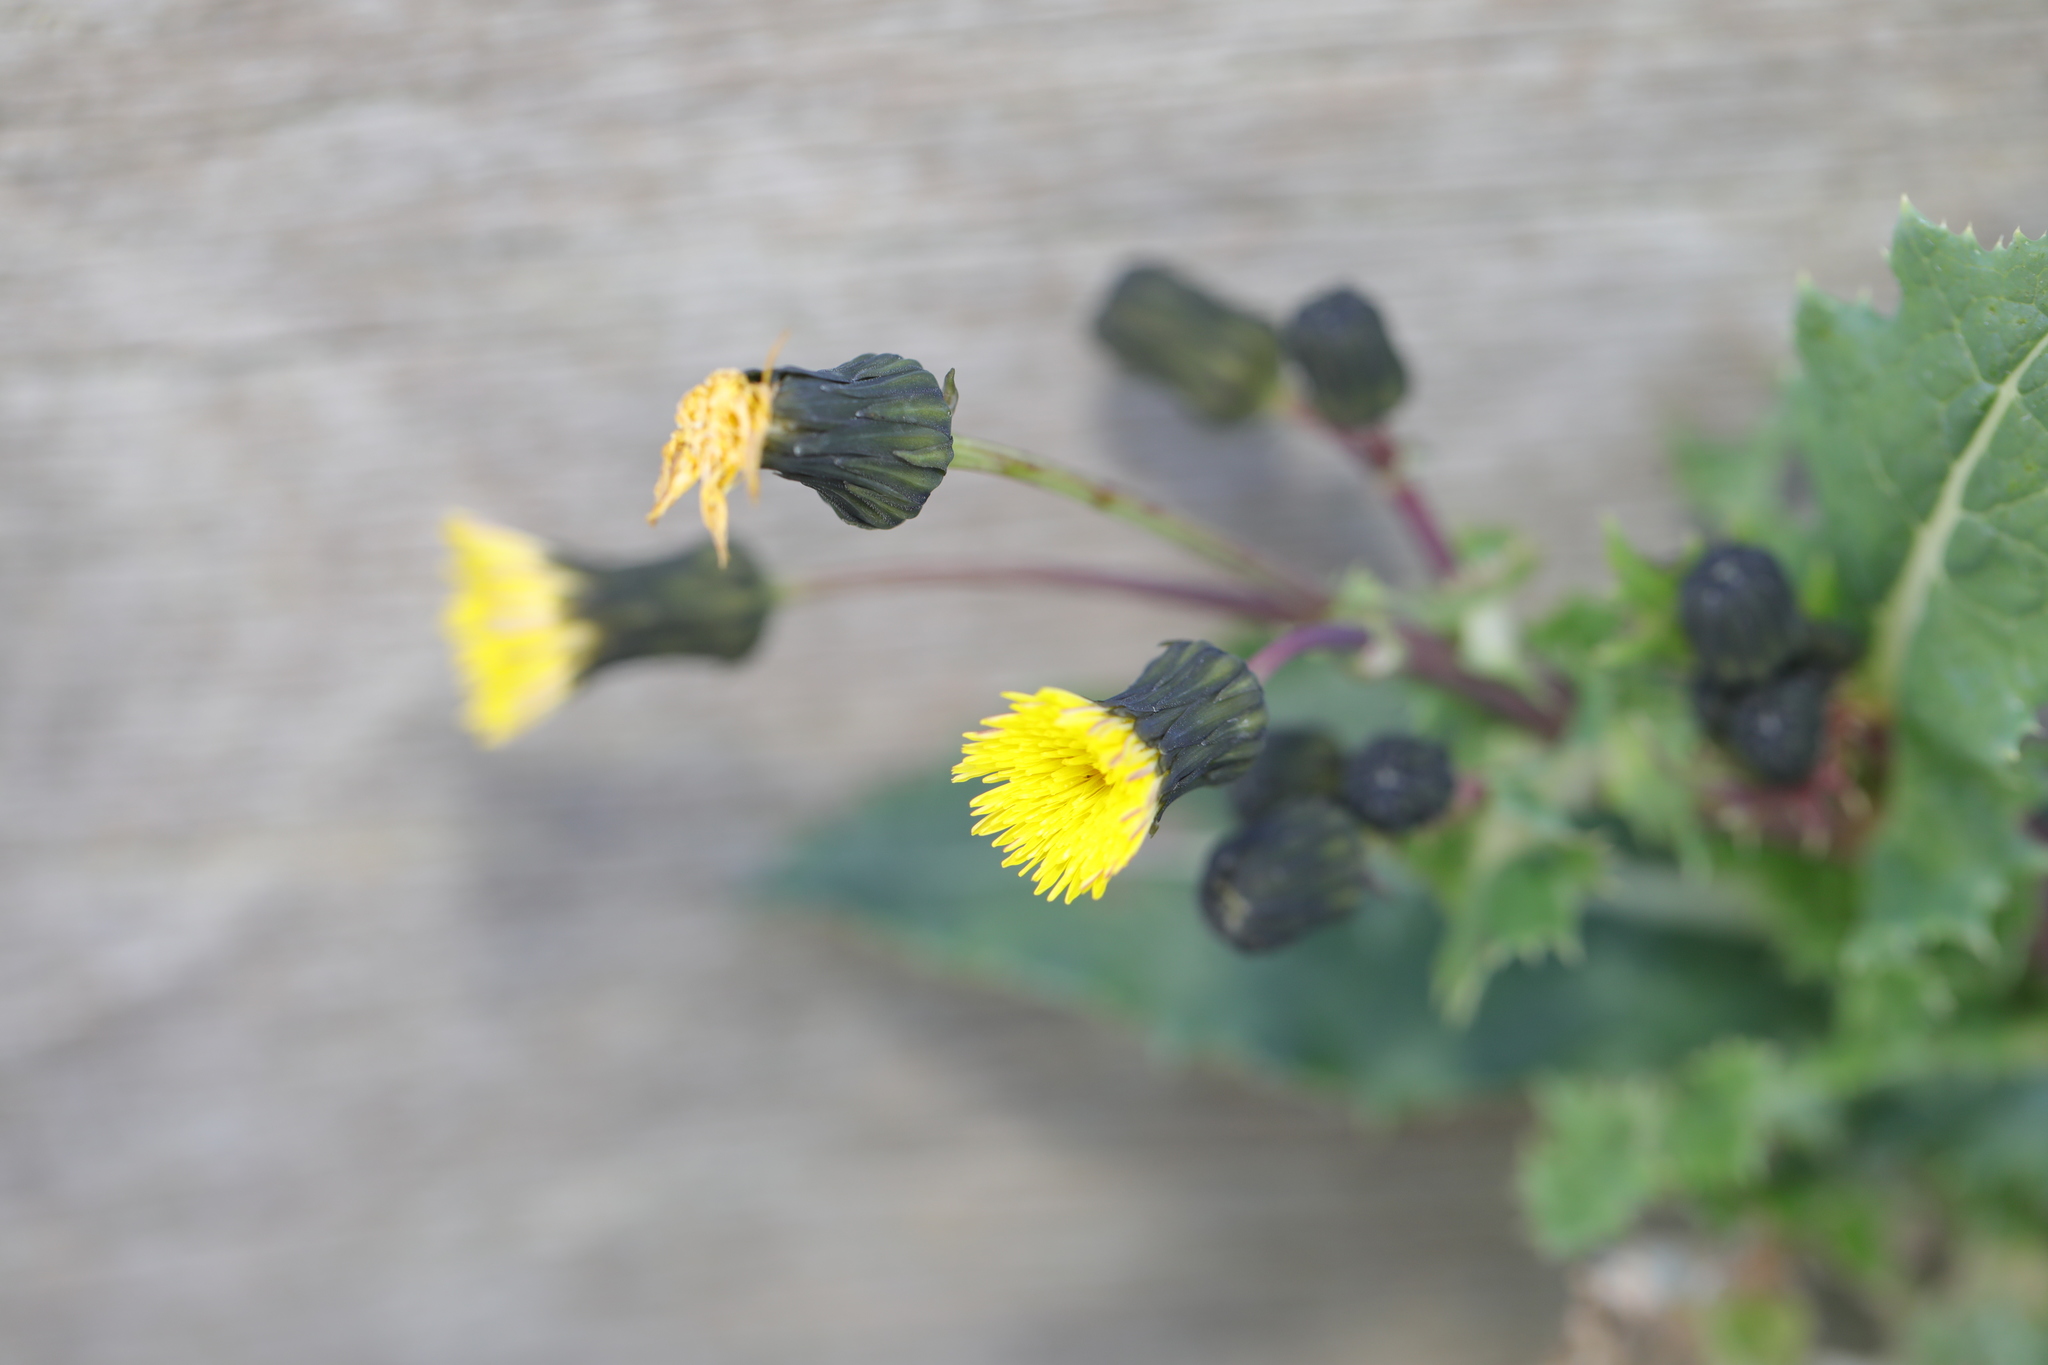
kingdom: Plantae
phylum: Tracheophyta
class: Magnoliopsida
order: Asterales
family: Asteraceae
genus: Sonchus
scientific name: Sonchus asper
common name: Prickly sow-thistle
